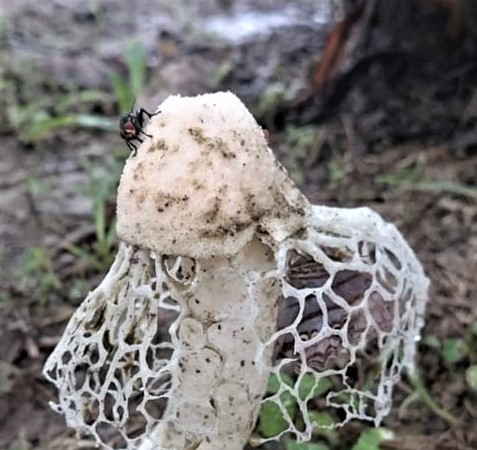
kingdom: Fungi
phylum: Basidiomycota
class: Agaricomycetes
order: Phallales
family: Phallaceae
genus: Phallus
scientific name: Phallus
